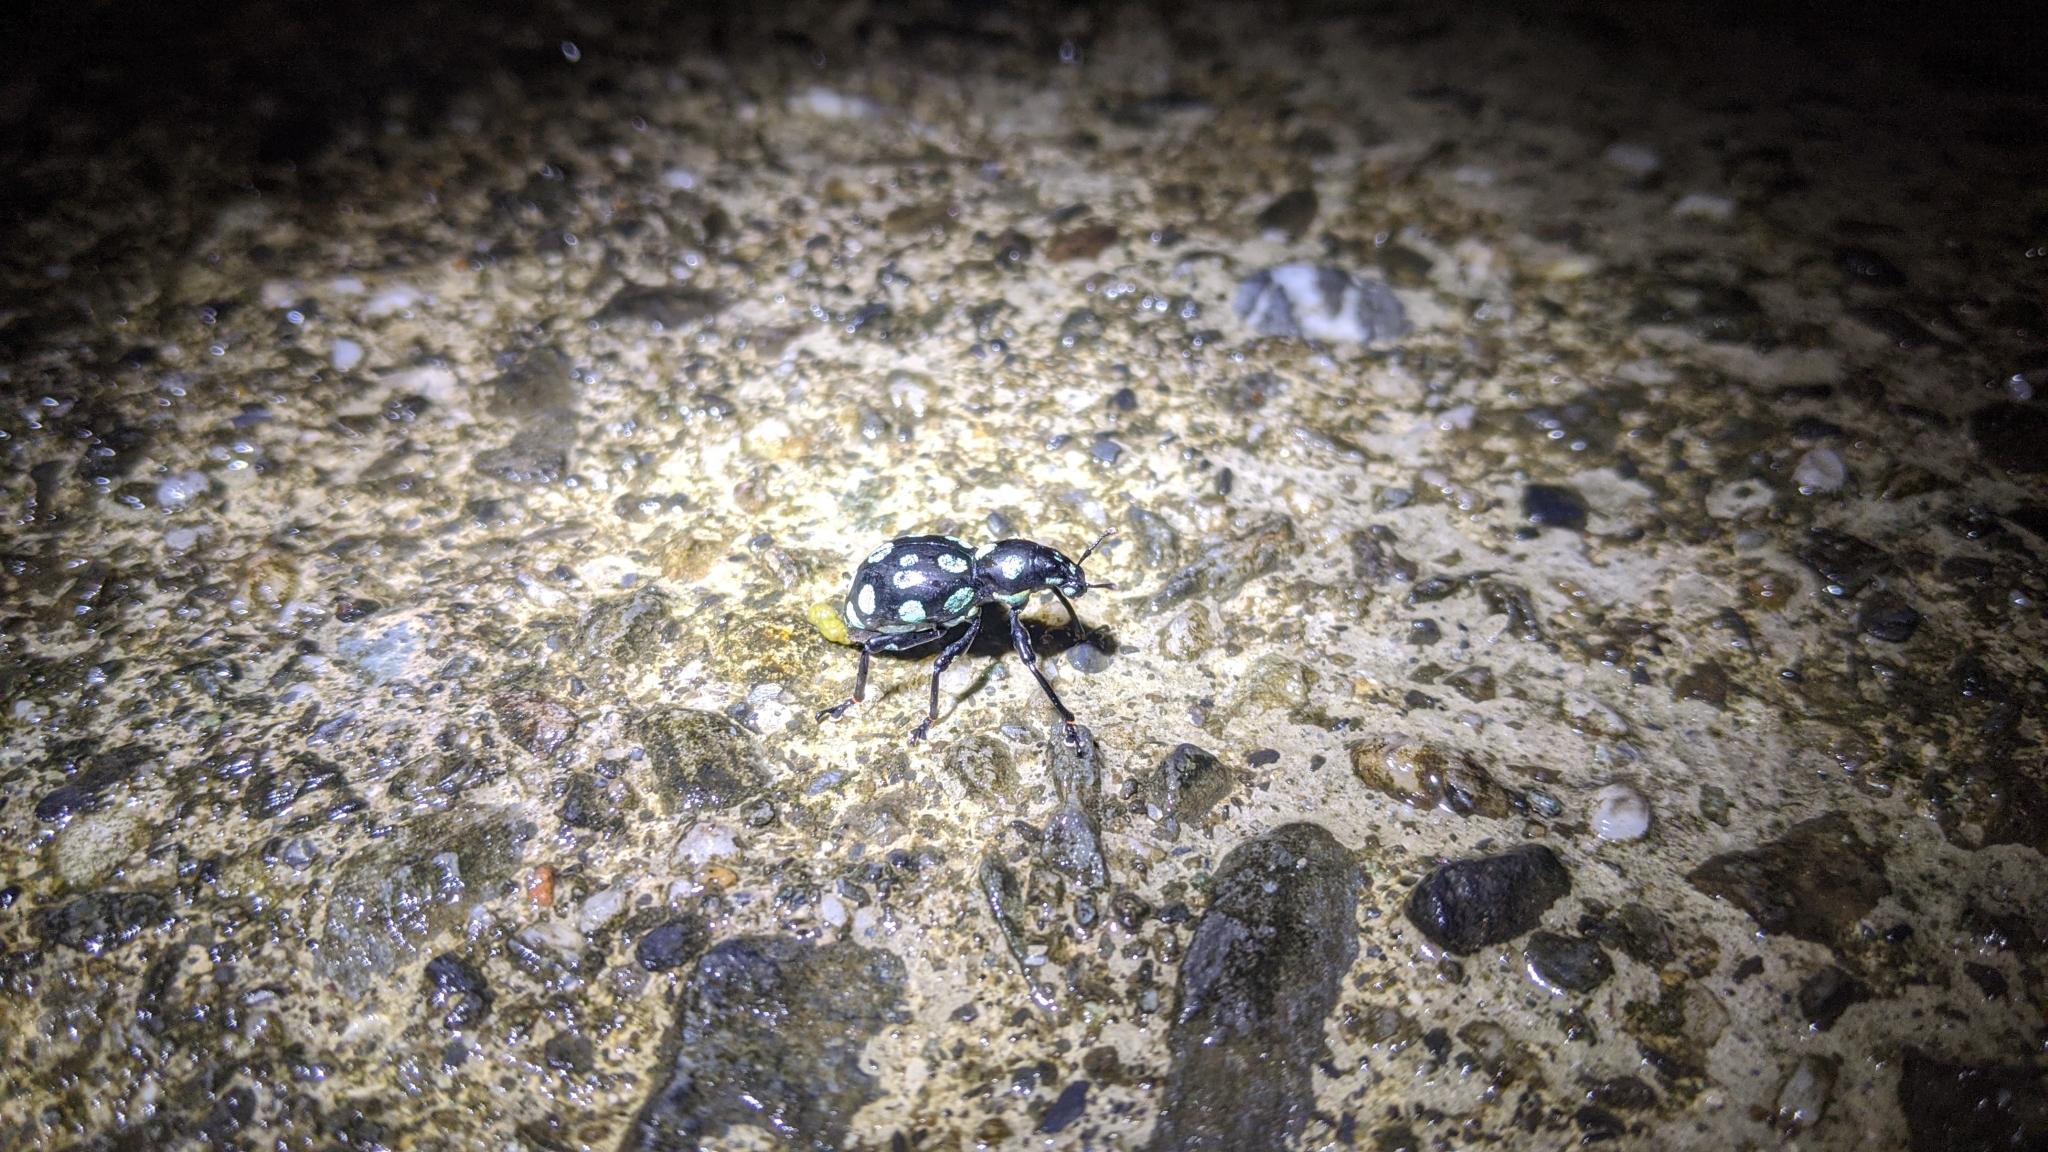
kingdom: Animalia
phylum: Arthropoda
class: Insecta
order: Coleoptera
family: Curculionidae
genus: Pachyrhynchus
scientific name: Pachyrhynchus sarcitis
